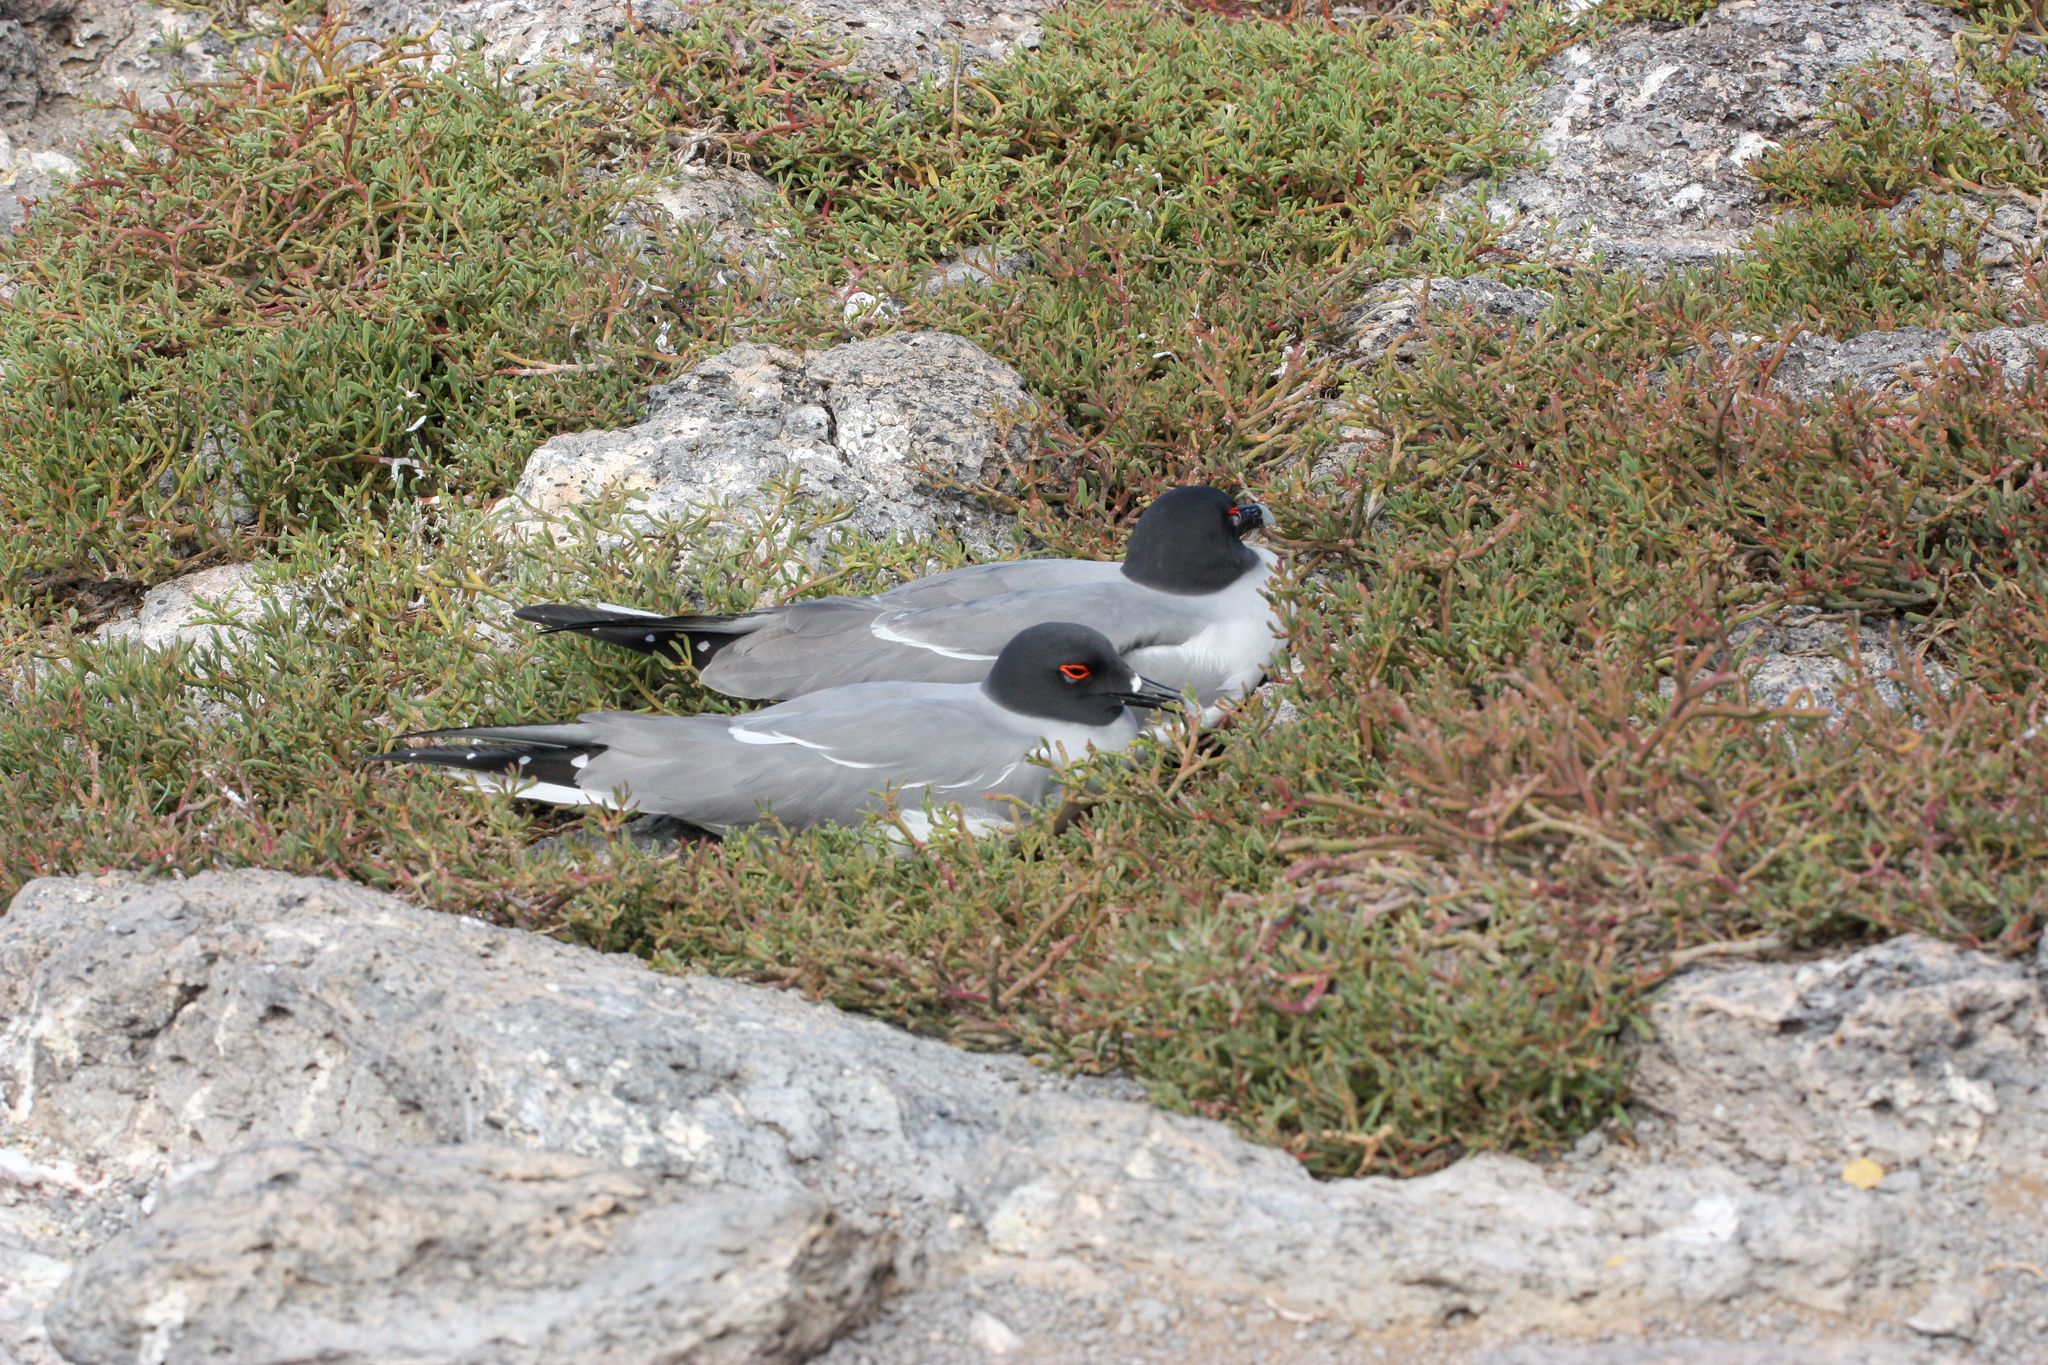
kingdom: Animalia
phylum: Chordata
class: Aves
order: Charadriiformes
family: Laridae
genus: Creagrus
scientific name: Creagrus furcatus
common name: Swallow-tailed gull
